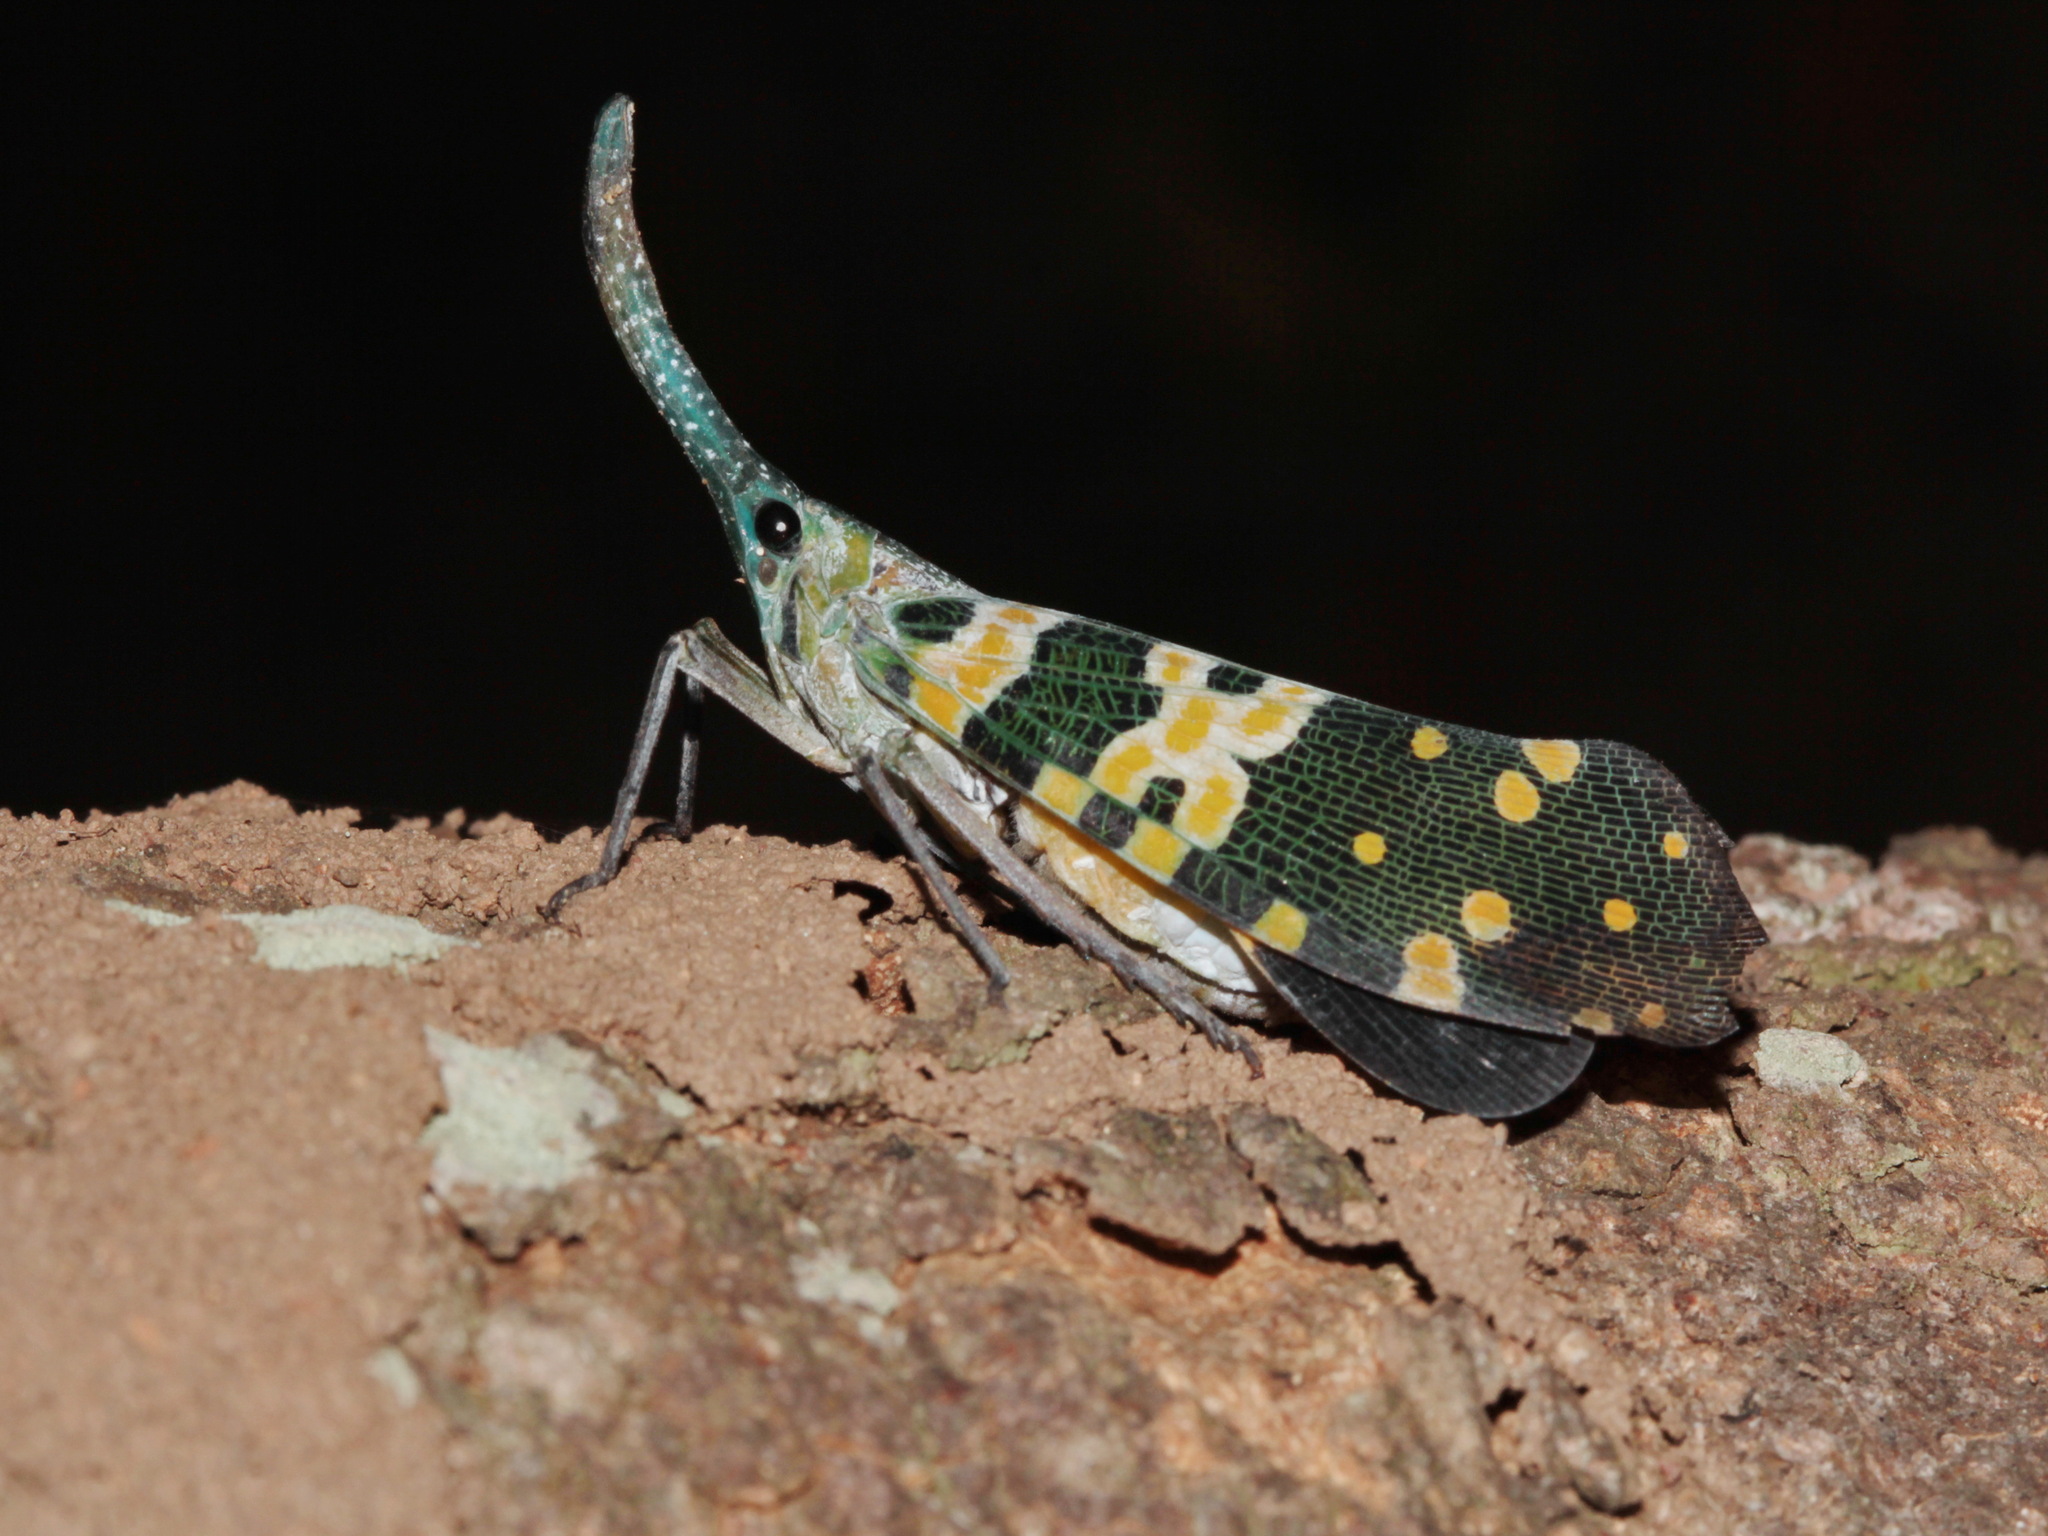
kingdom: Animalia
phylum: Arthropoda
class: Insecta
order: Hemiptera
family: Fulgoridae
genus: Pyrops
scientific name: Pyrops viridirostris
